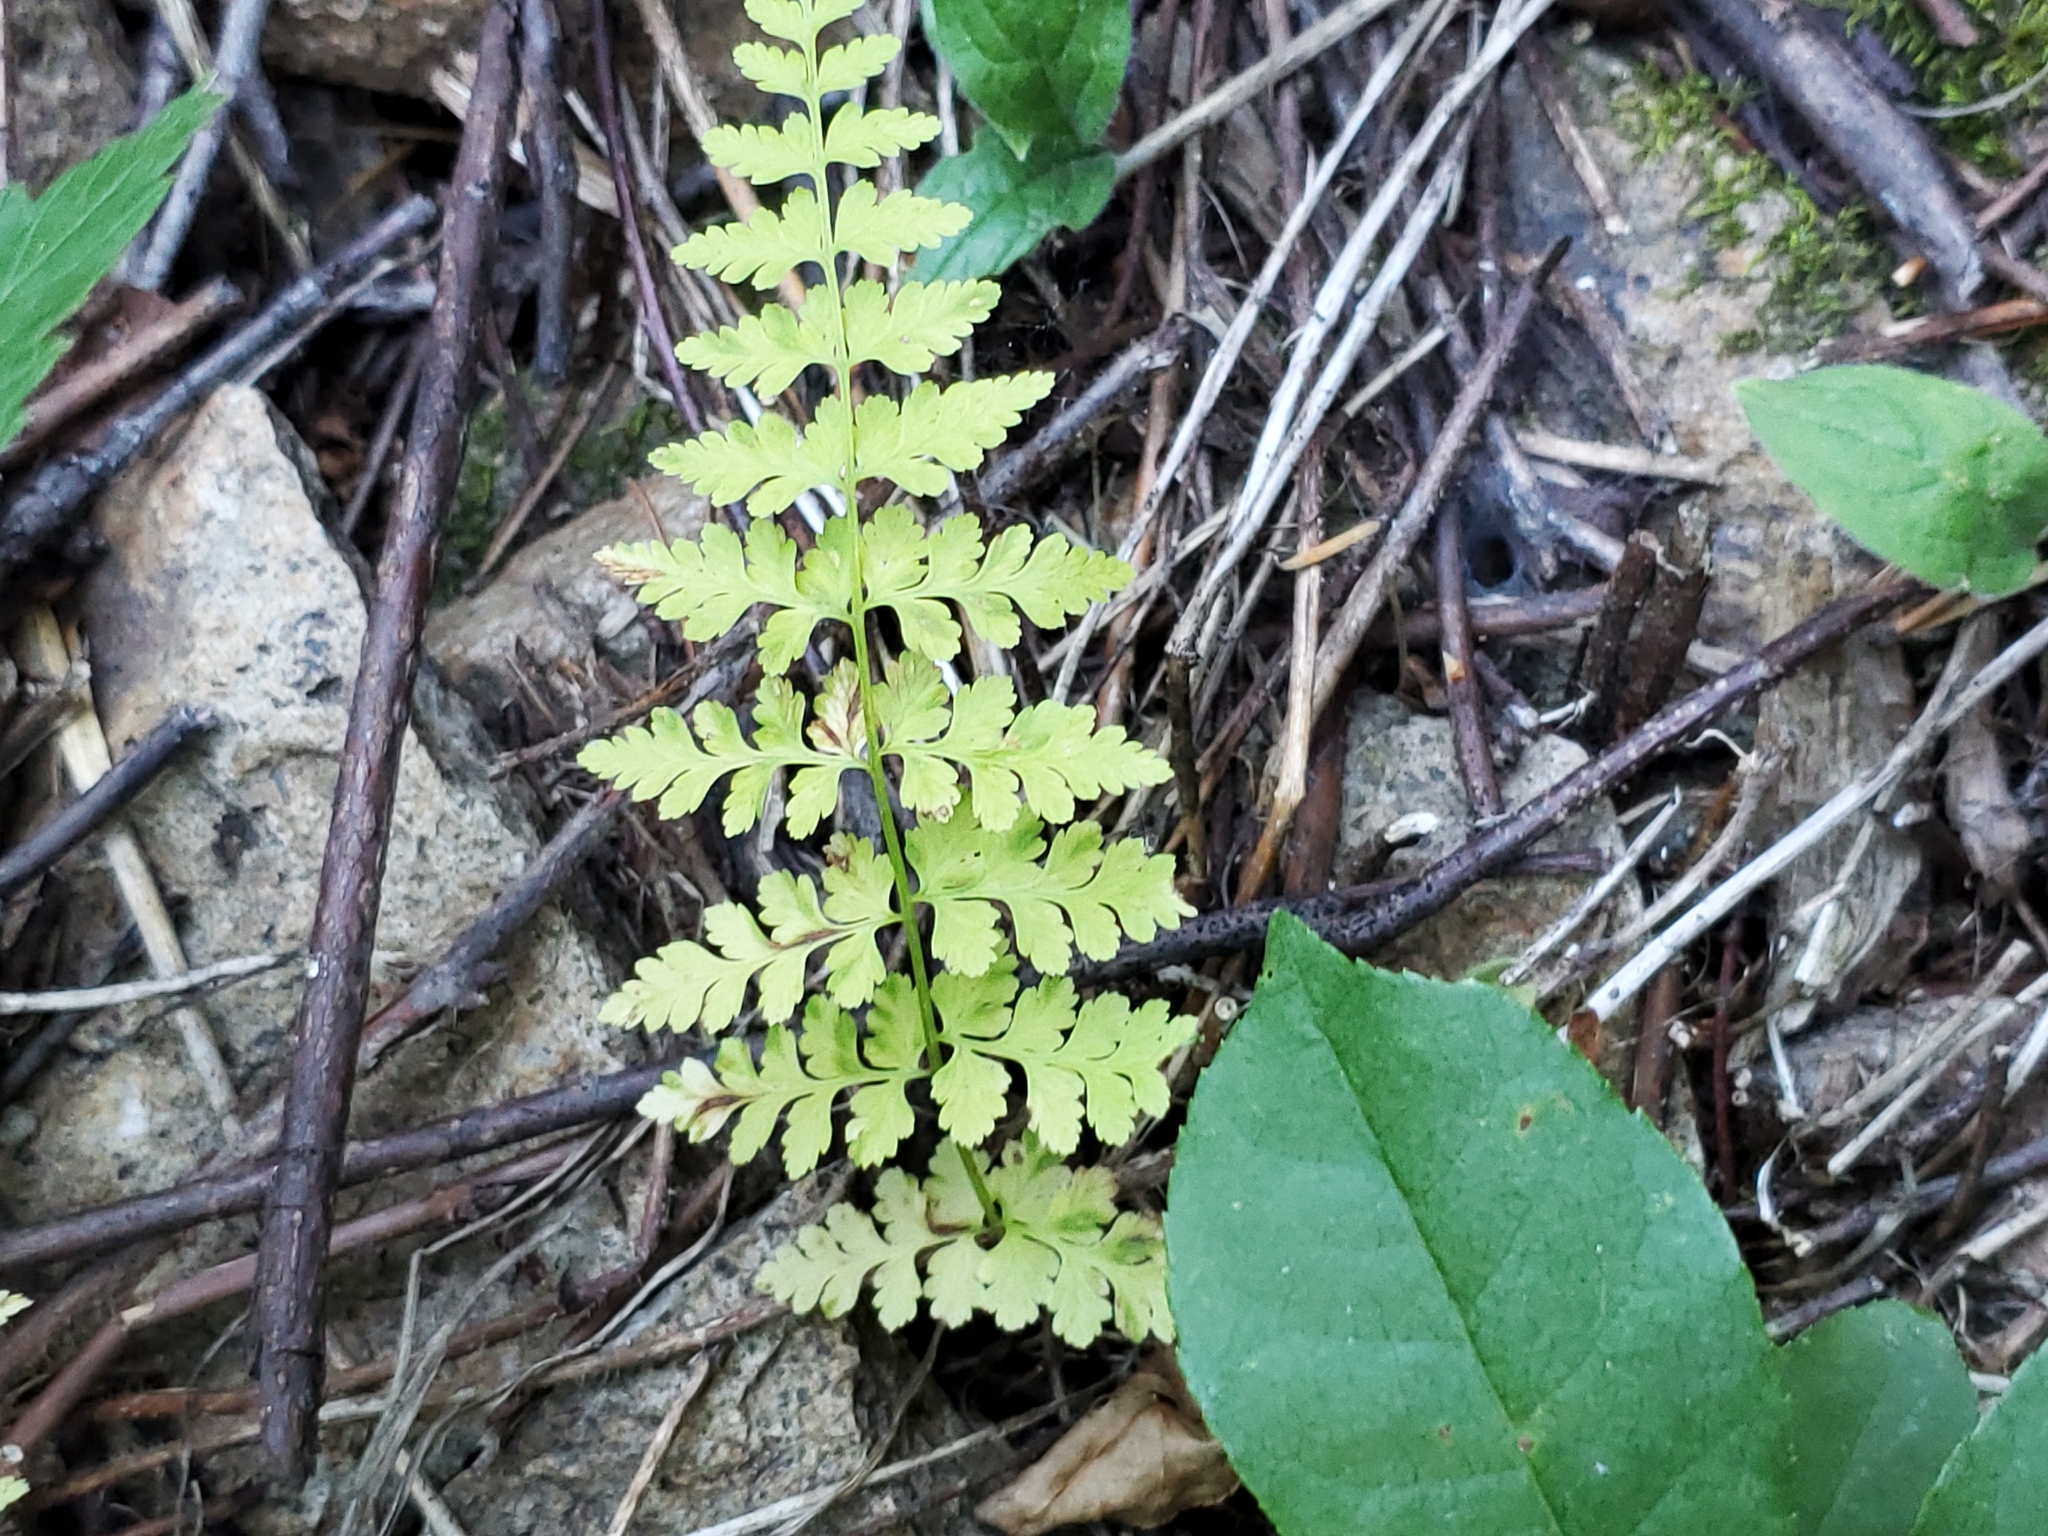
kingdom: Plantae
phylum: Tracheophyta
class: Polypodiopsida
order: Polypodiales
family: Cystopteridaceae
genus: Cystopteris
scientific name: Cystopteris fragilis
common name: Brittle bladder fern
